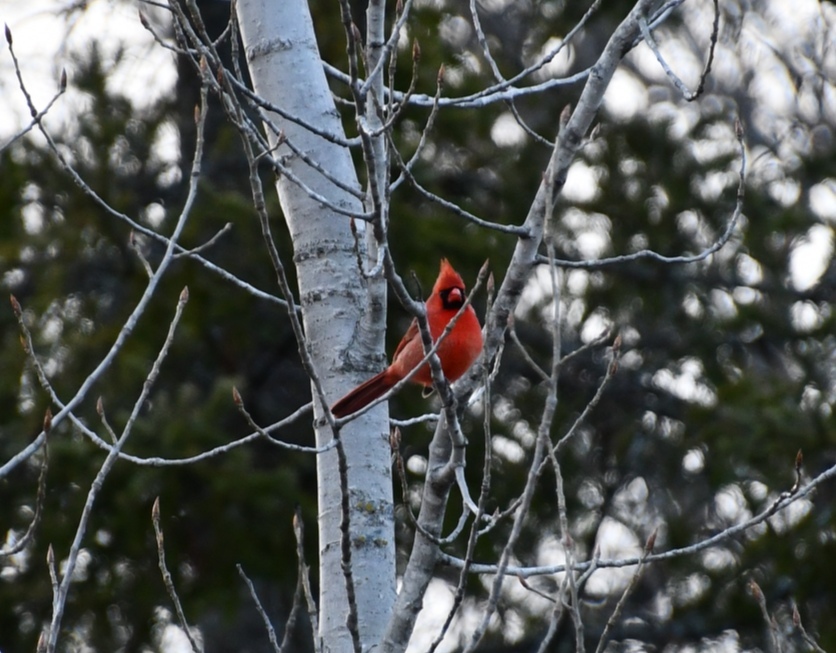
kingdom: Animalia
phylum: Chordata
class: Aves
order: Passeriformes
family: Cardinalidae
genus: Cardinalis
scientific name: Cardinalis cardinalis
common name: Northern cardinal
